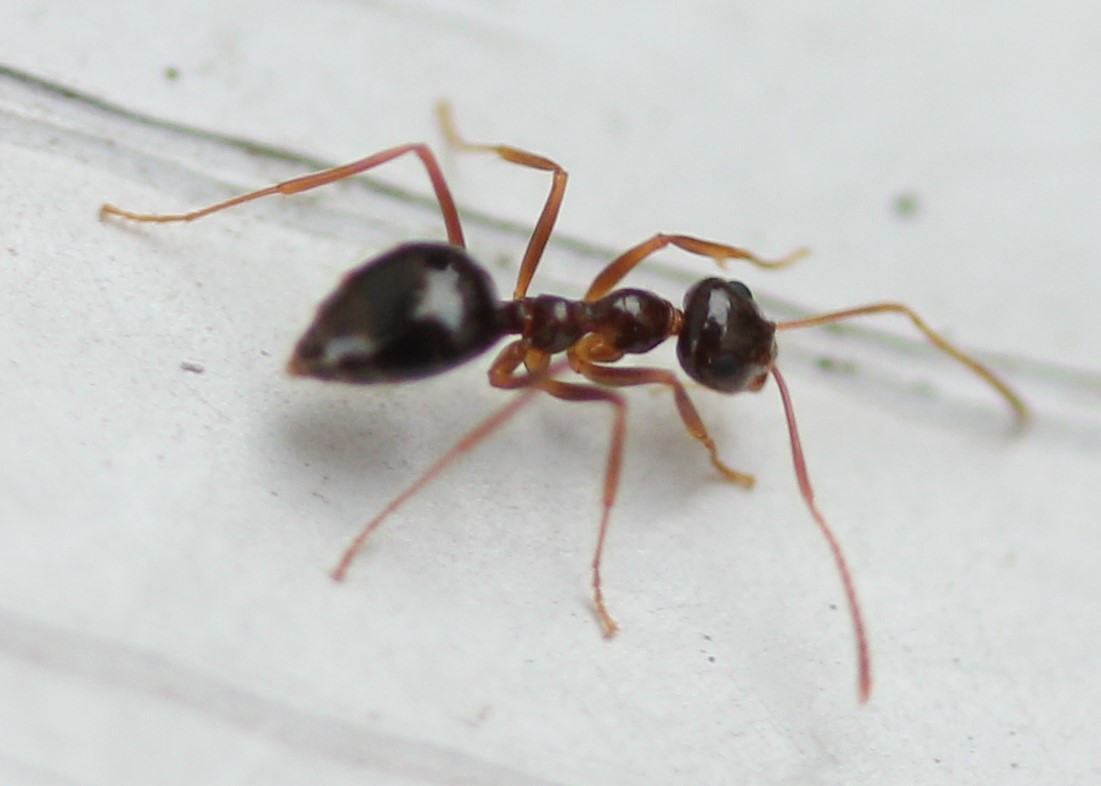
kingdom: Animalia
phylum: Arthropoda
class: Insecta
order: Hymenoptera
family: Formicidae
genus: Prenolepis
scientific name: Prenolepis imparis
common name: Small honey ant
